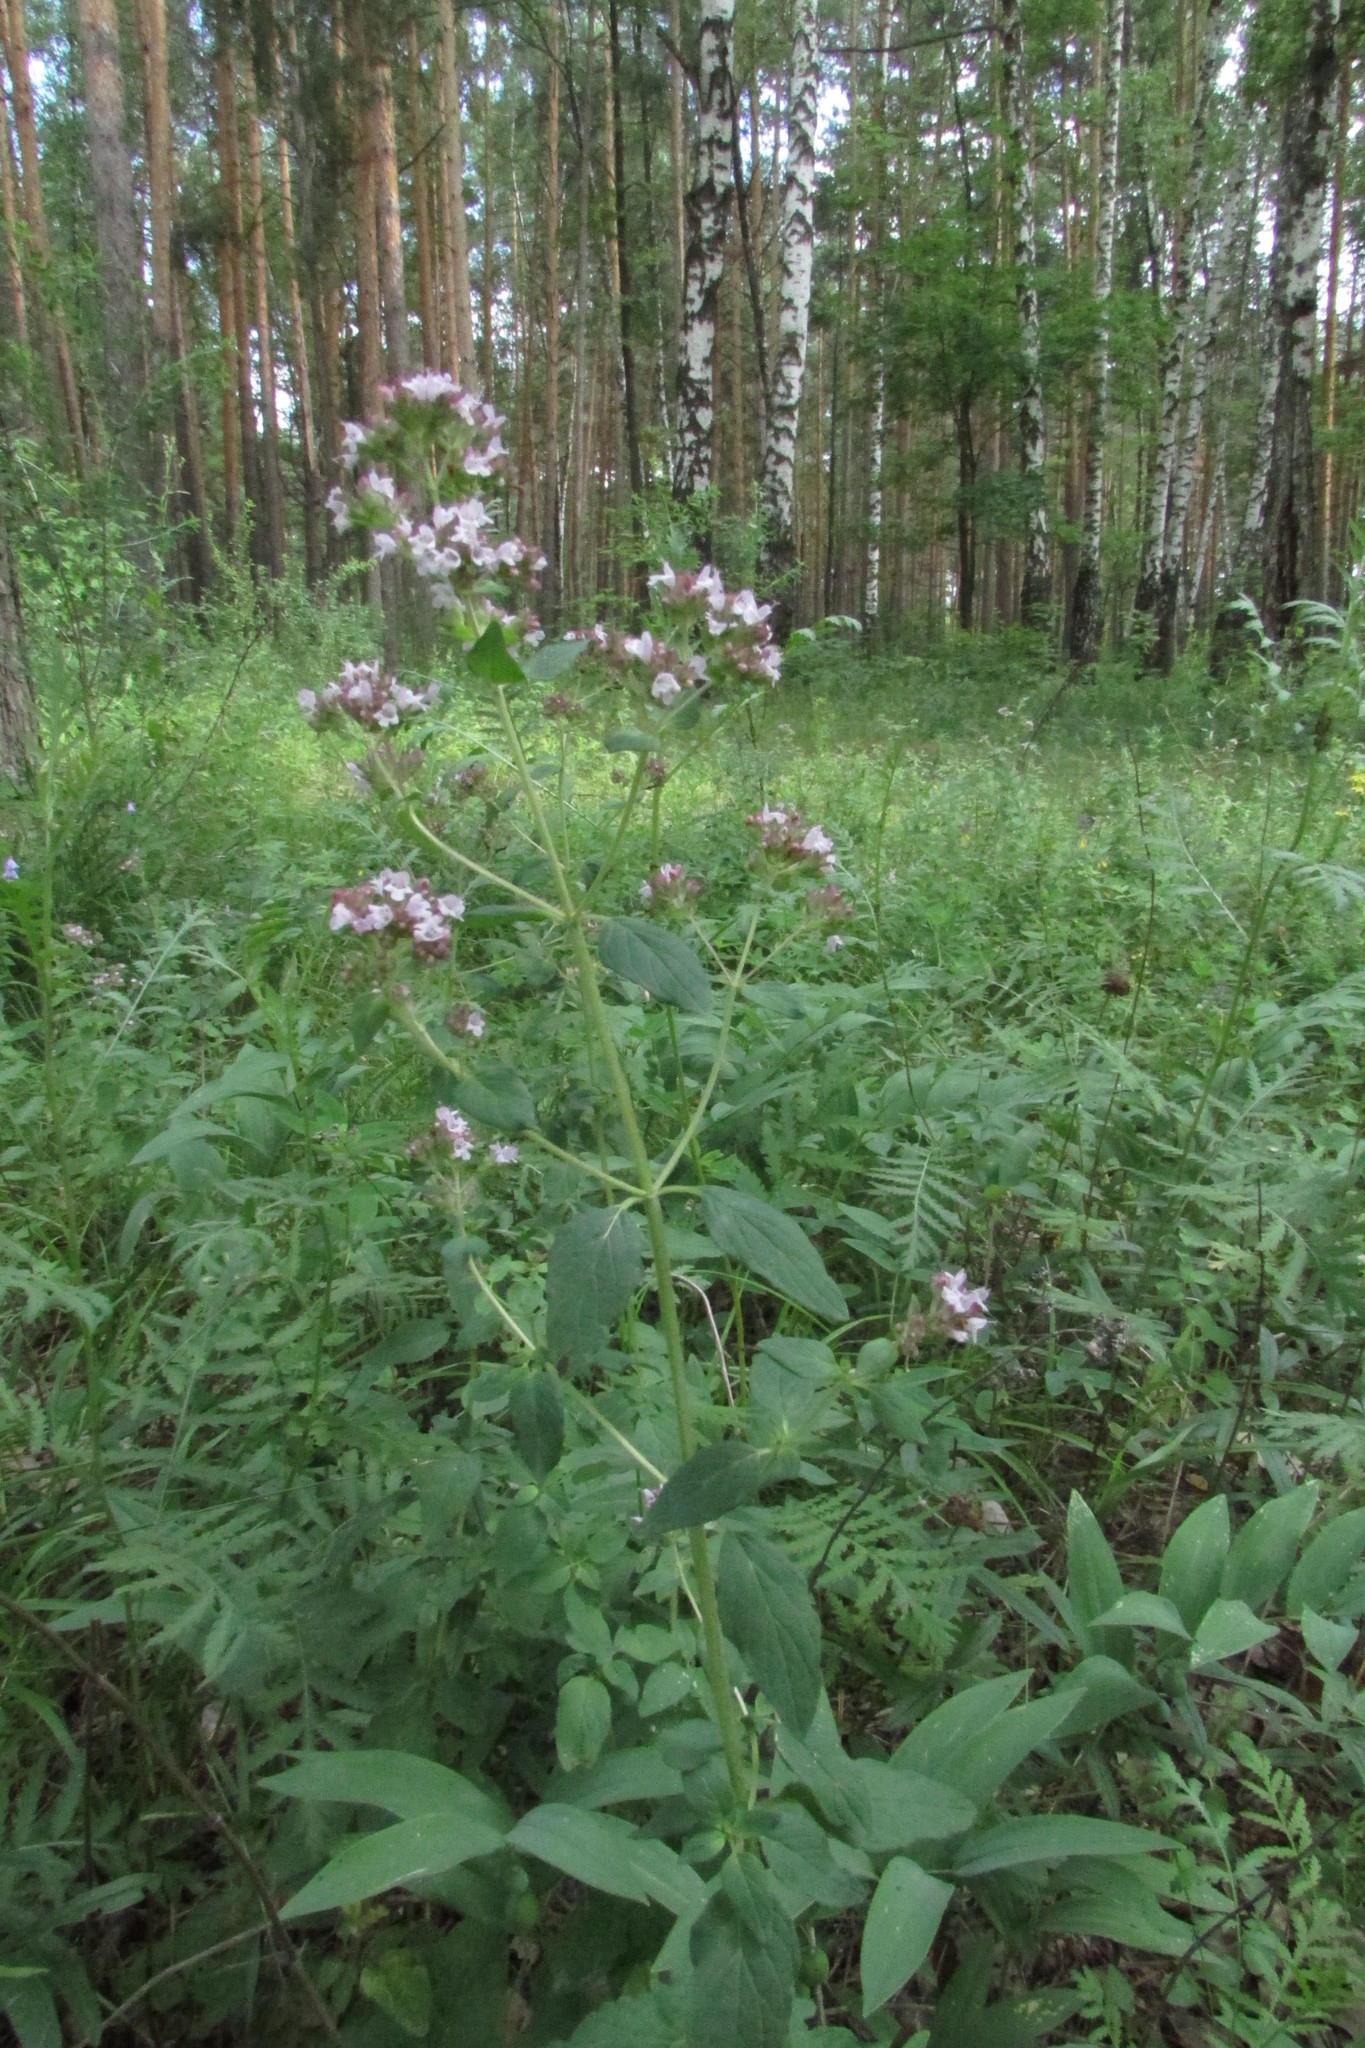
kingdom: Plantae
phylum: Tracheophyta
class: Magnoliopsida
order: Lamiales
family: Lamiaceae
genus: Origanum
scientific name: Origanum vulgare
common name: Wild marjoram
